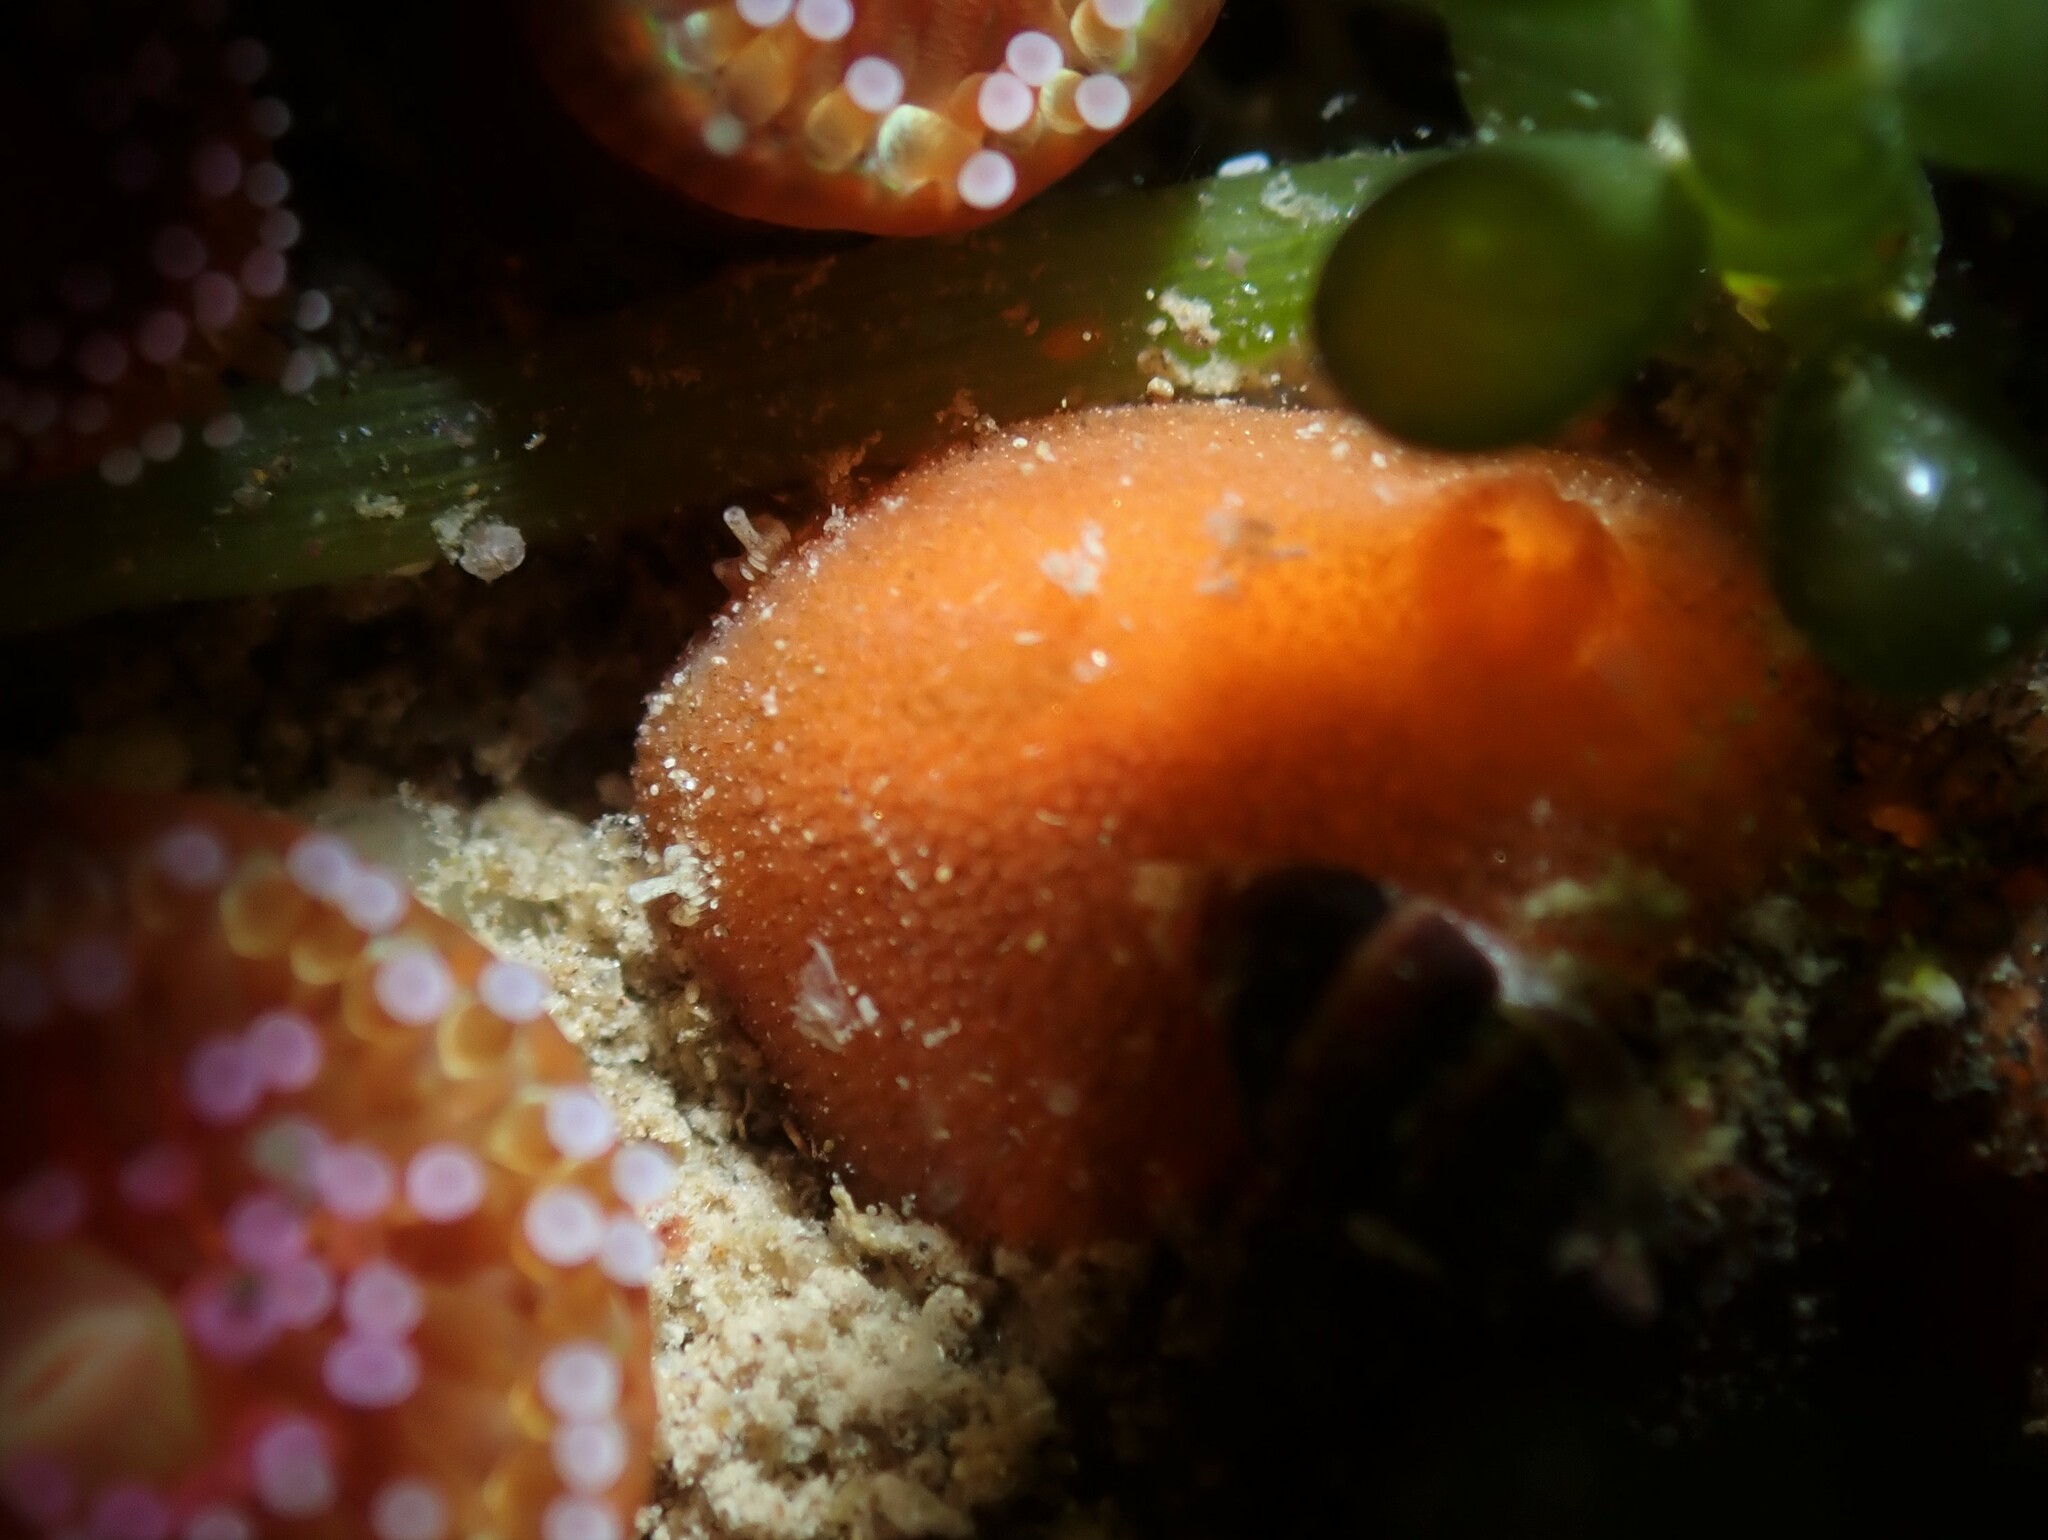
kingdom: Animalia
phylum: Mollusca
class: Gastropoda
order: Nudibranchia
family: Discodorididae
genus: Rostanga
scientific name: Rostanga muscula
